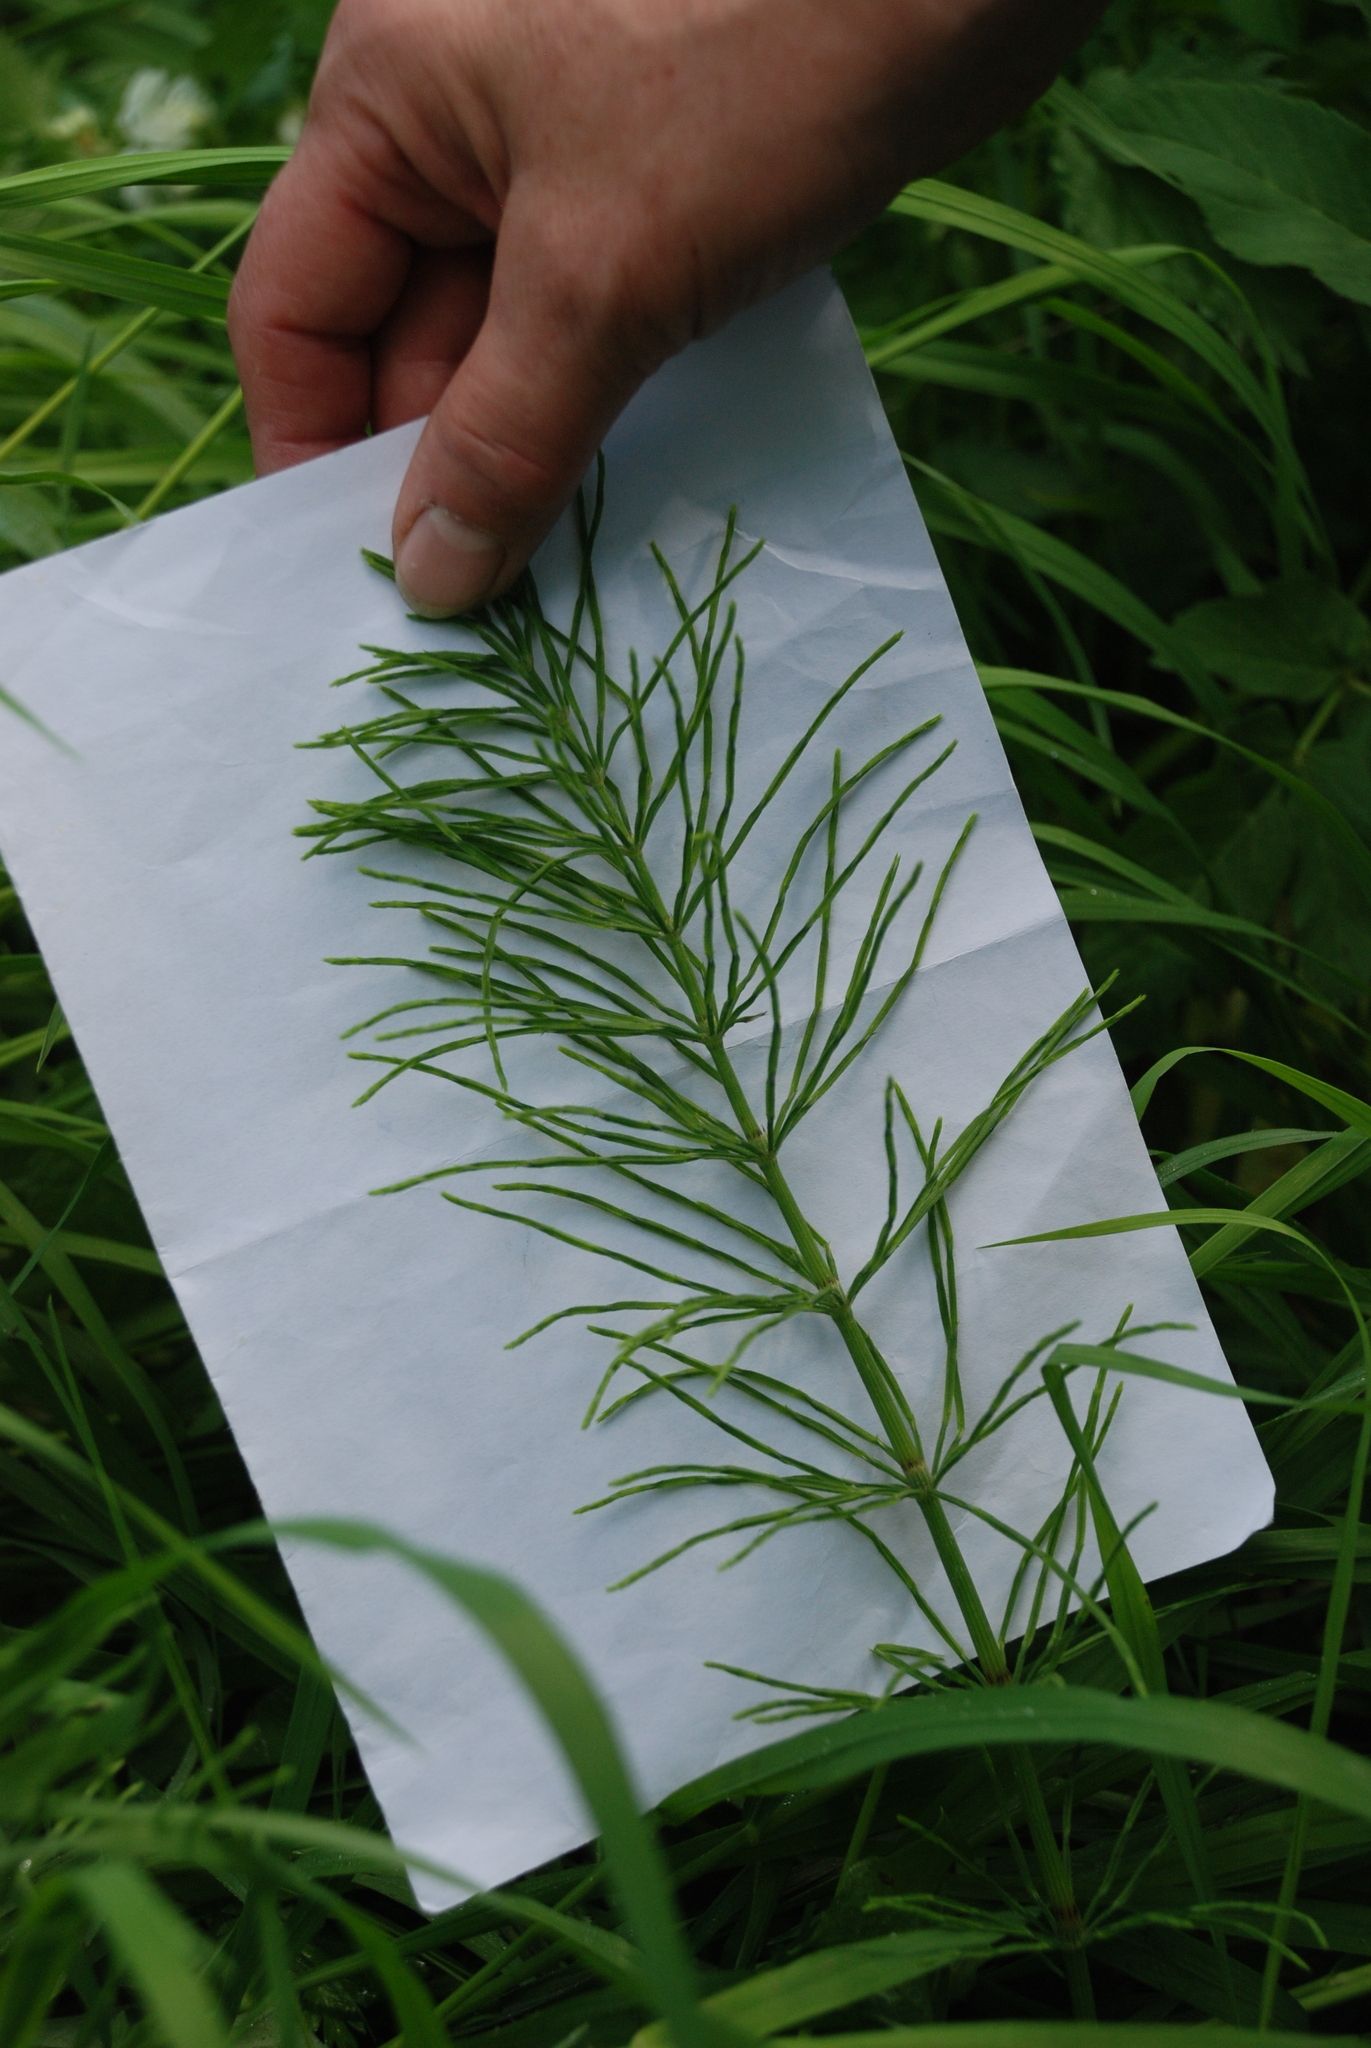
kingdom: Plantae
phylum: Tracheophyta
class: Polypodiopsida
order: Equisetales
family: Equisetaceae
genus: Equisetum
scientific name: Equisetum arvense
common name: Field horsetail
